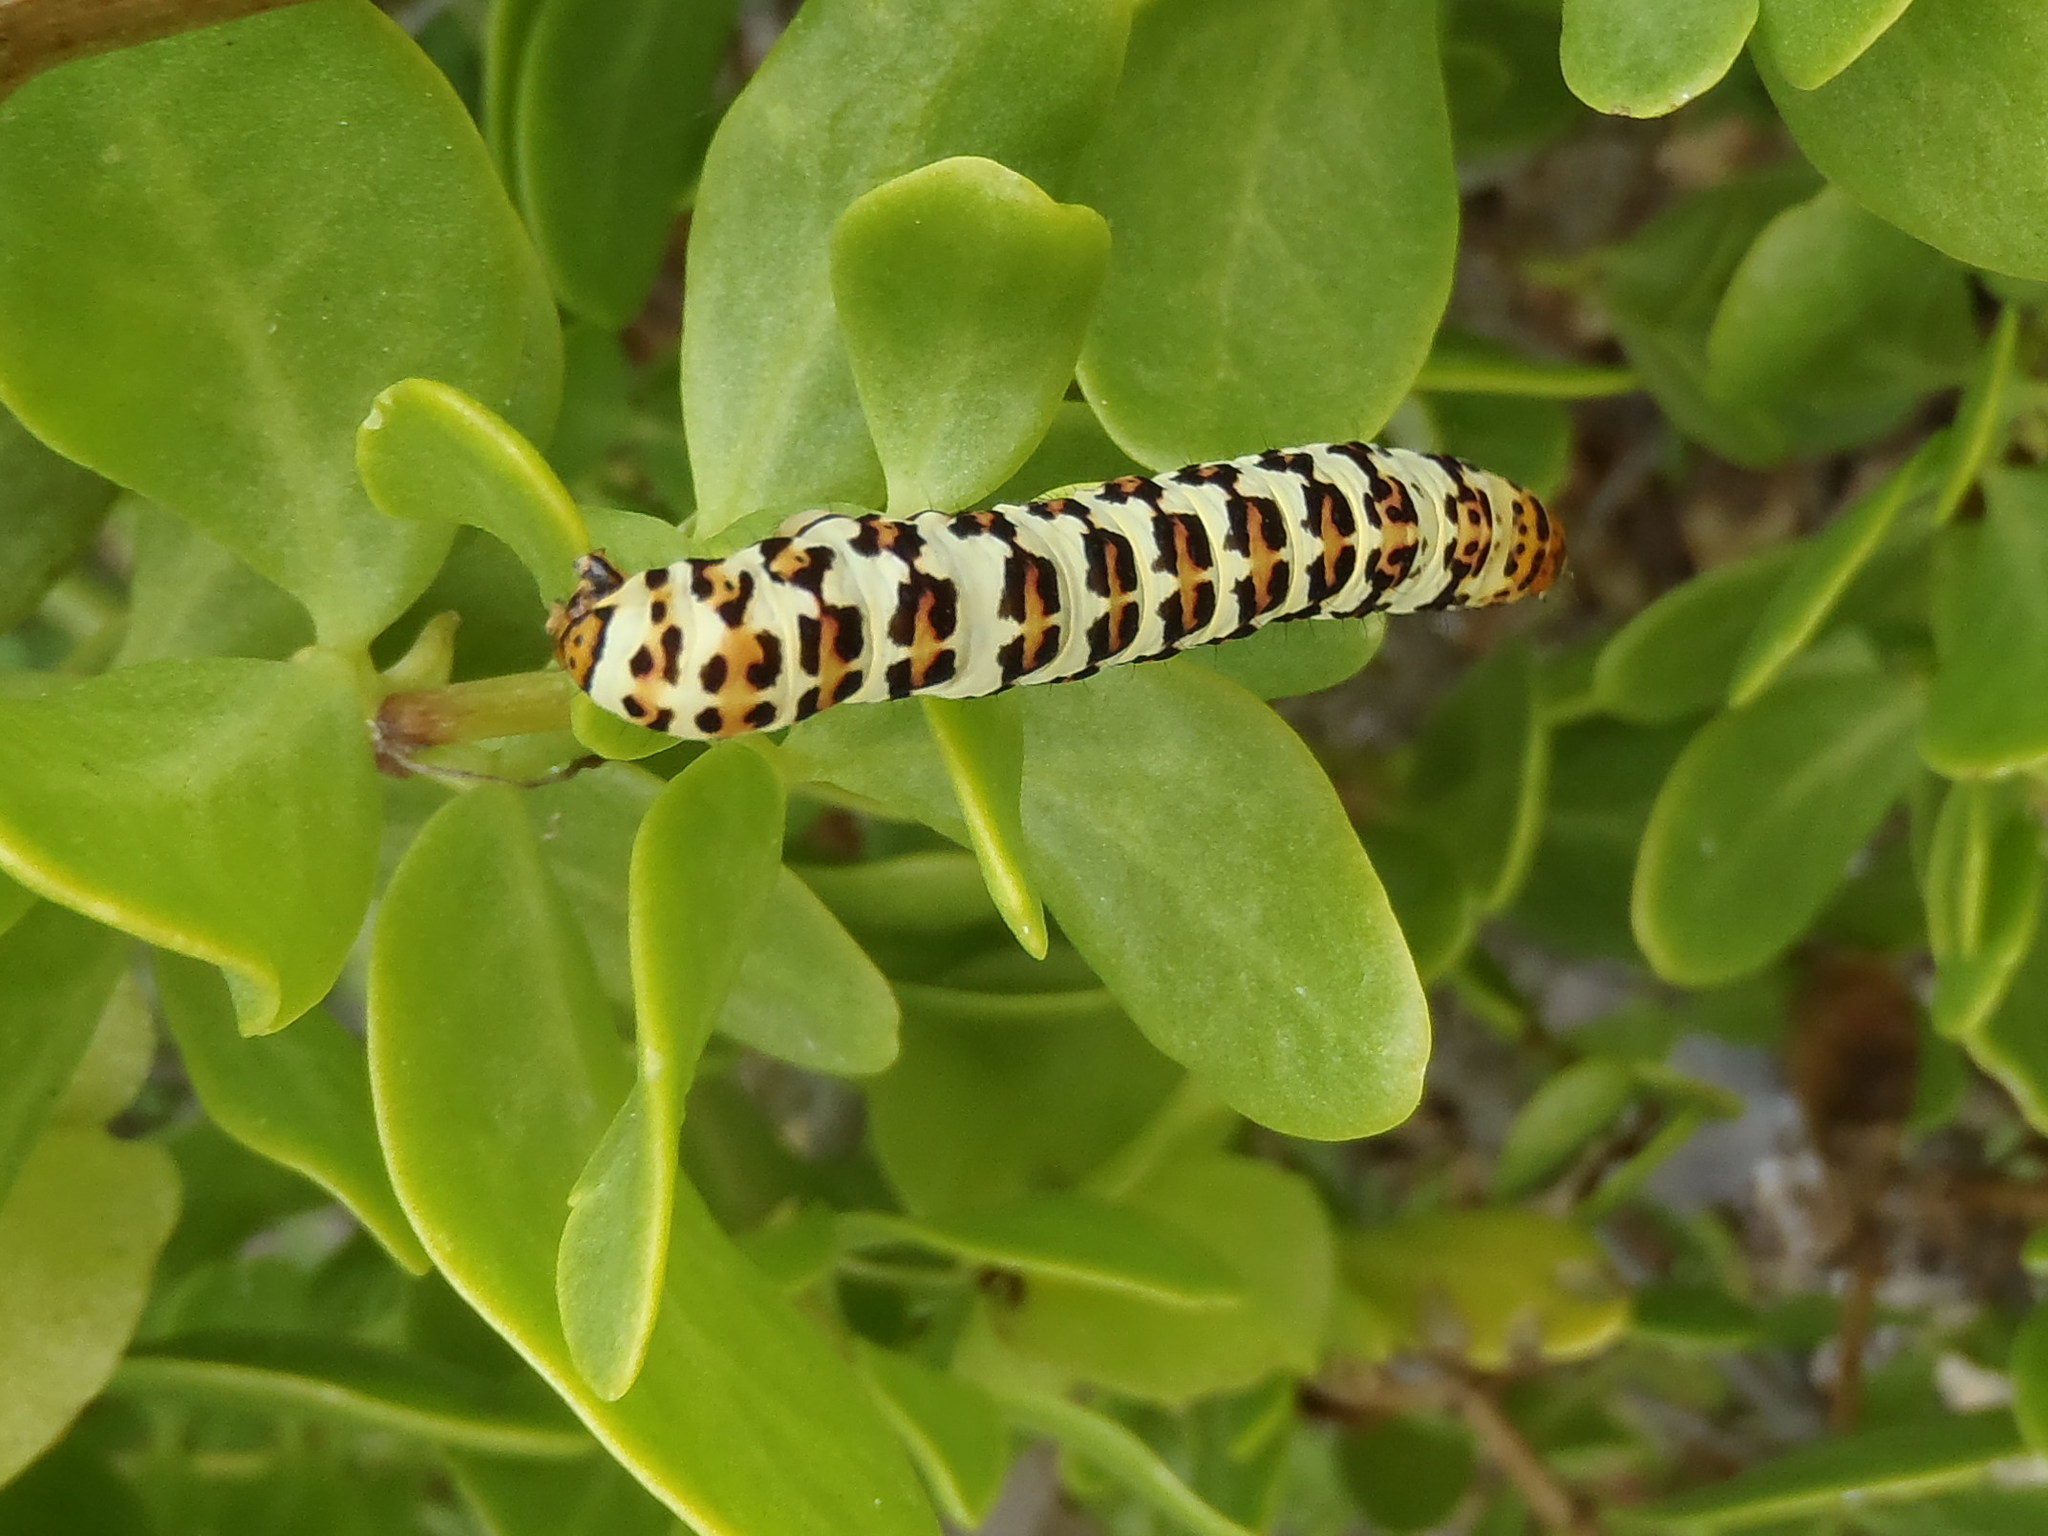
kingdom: Animalia
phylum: Arthropoda
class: Insecta
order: Lepidoptera
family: Noctuidae
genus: Diaphone
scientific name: Diaphone eumela
